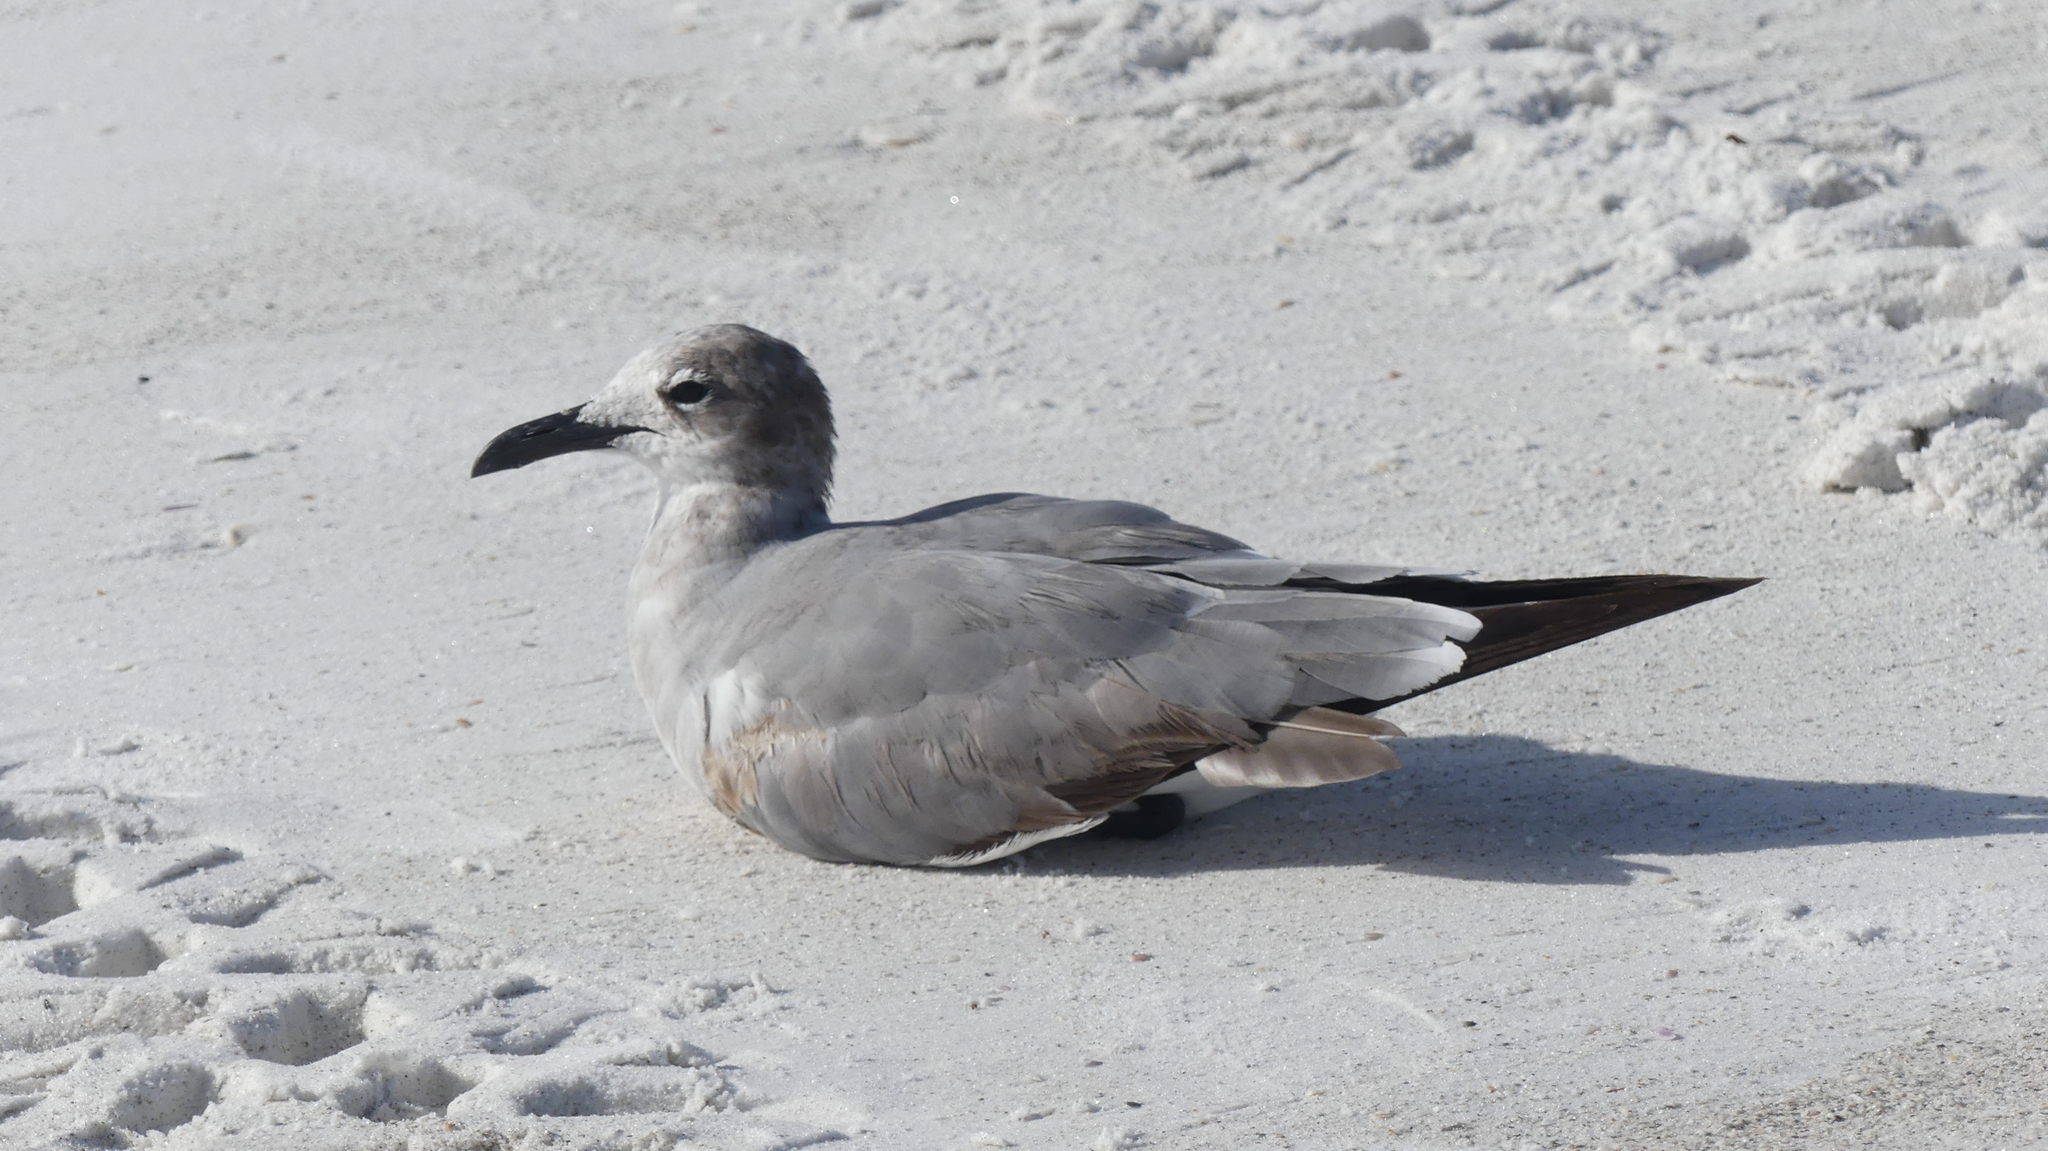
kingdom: Animalia
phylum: Chordata
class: Aves
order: Charadriiformes
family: Laridae
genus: Leucophaeus
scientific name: Leucophaeus atricilla
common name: Laughing gull
